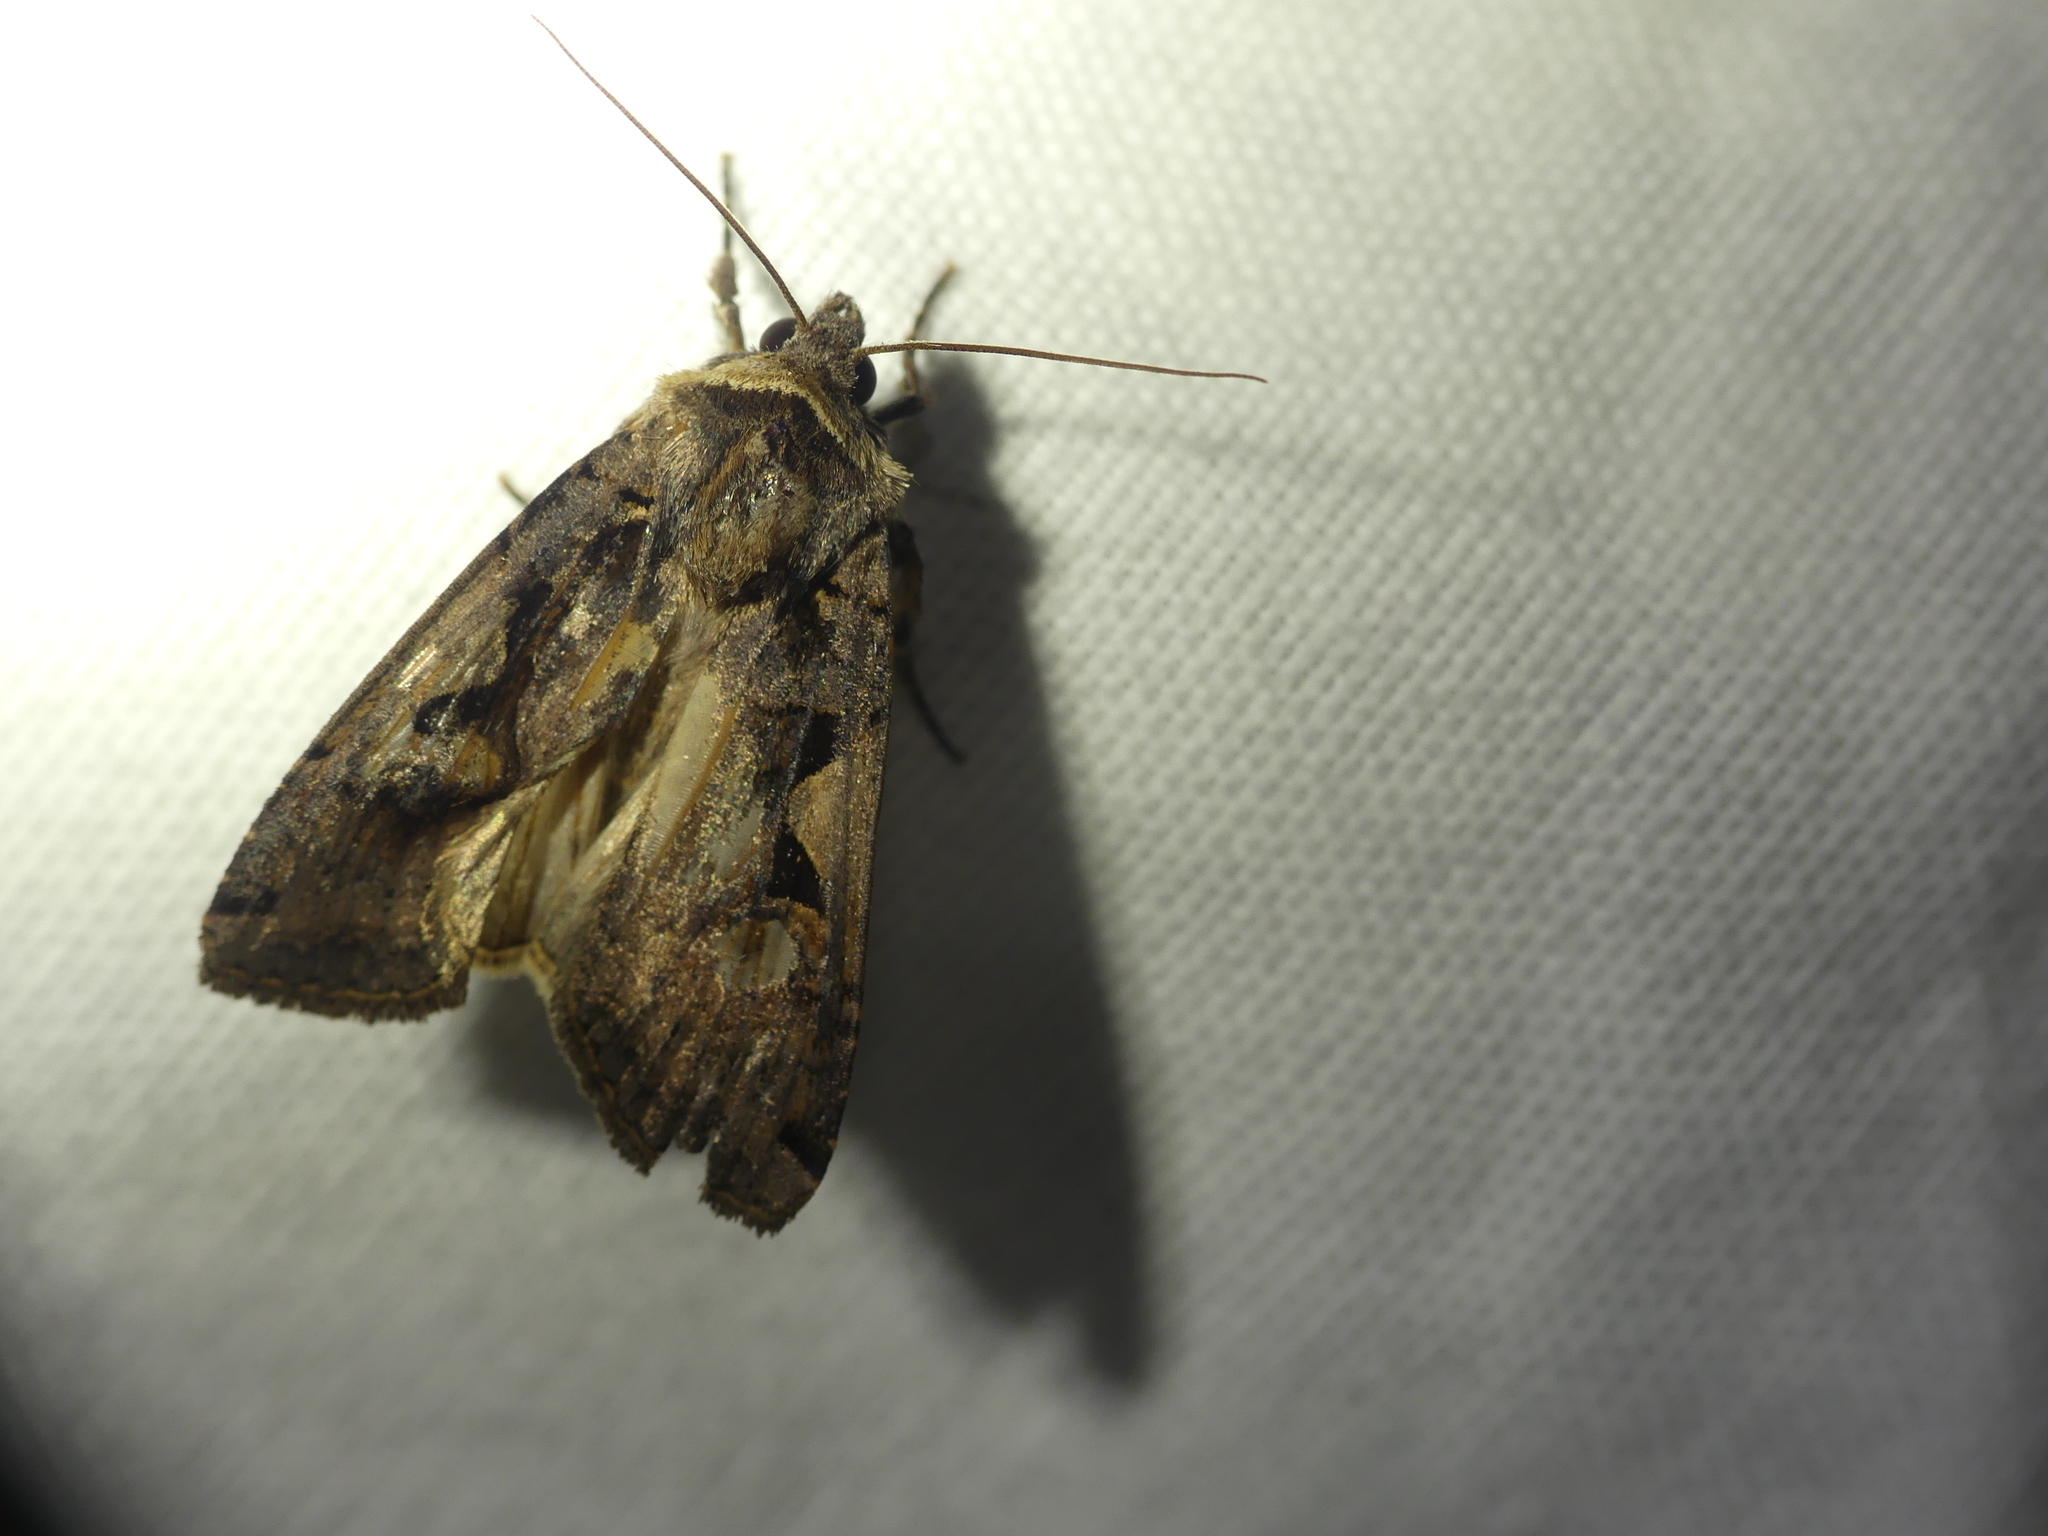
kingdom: Animalia
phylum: Arthropoda
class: Insecta
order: Lepidoptera
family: Noctuidae
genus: Xestia
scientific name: Xestia c-nigrum
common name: Setaceous hebrew character
